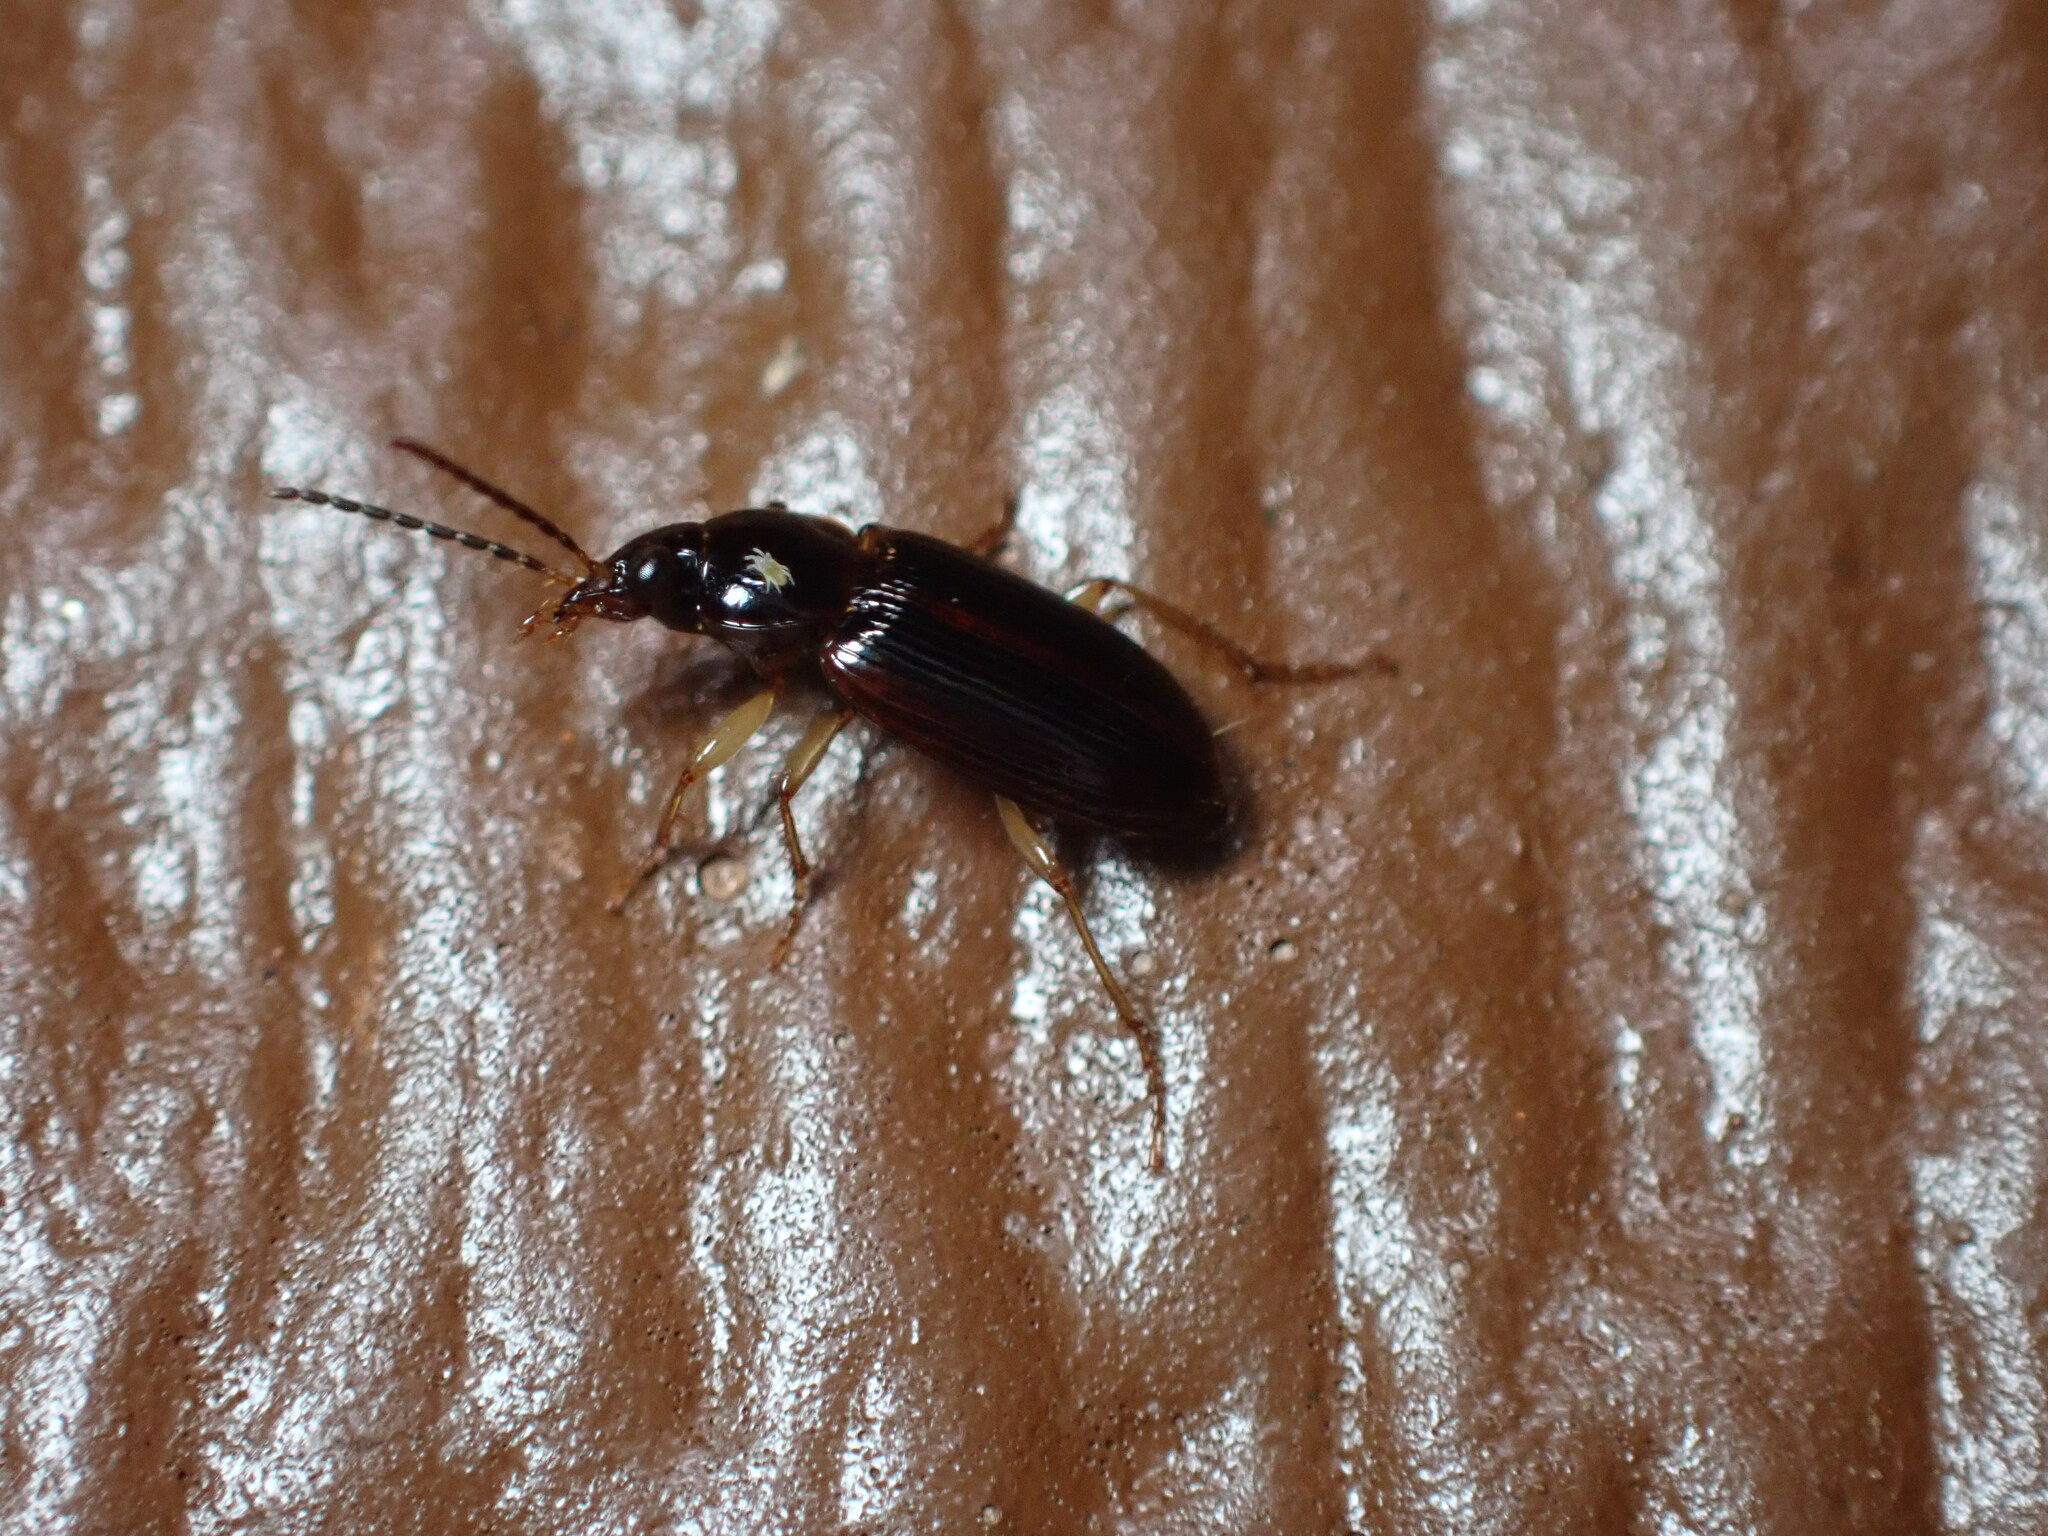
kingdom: Animalia
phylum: Arthropoda
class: Insecta
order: Coleoptera
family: Carabidae
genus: Stenolophus
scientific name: Stenolophus ochropezus
